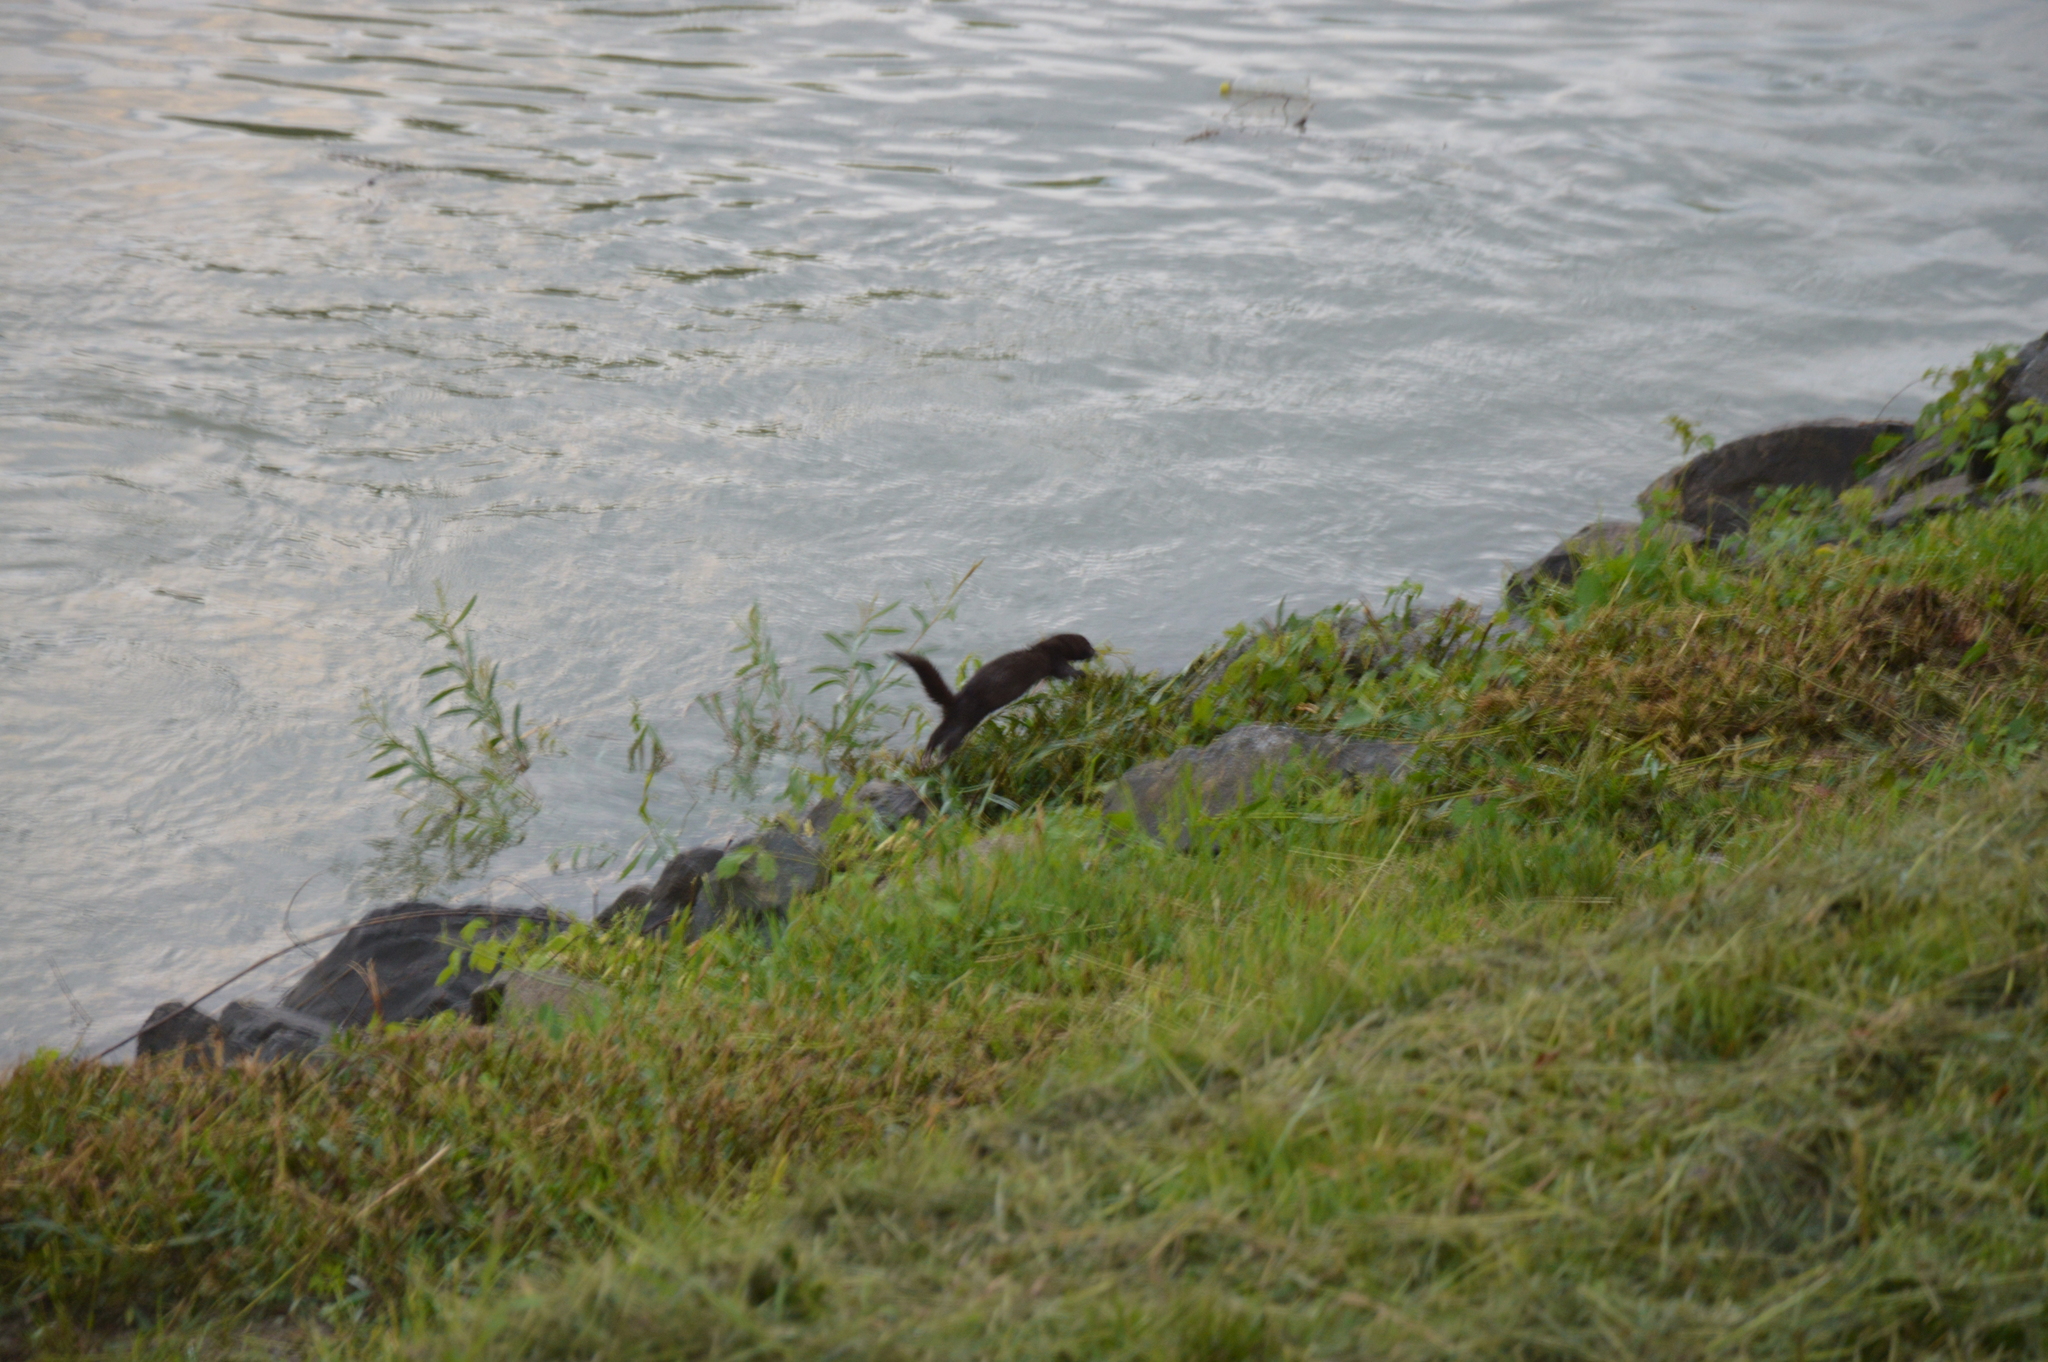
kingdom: Animalia
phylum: Chordata
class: Mammalia
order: Carnivora
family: Mustelidae
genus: Mustela
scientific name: Mustela
